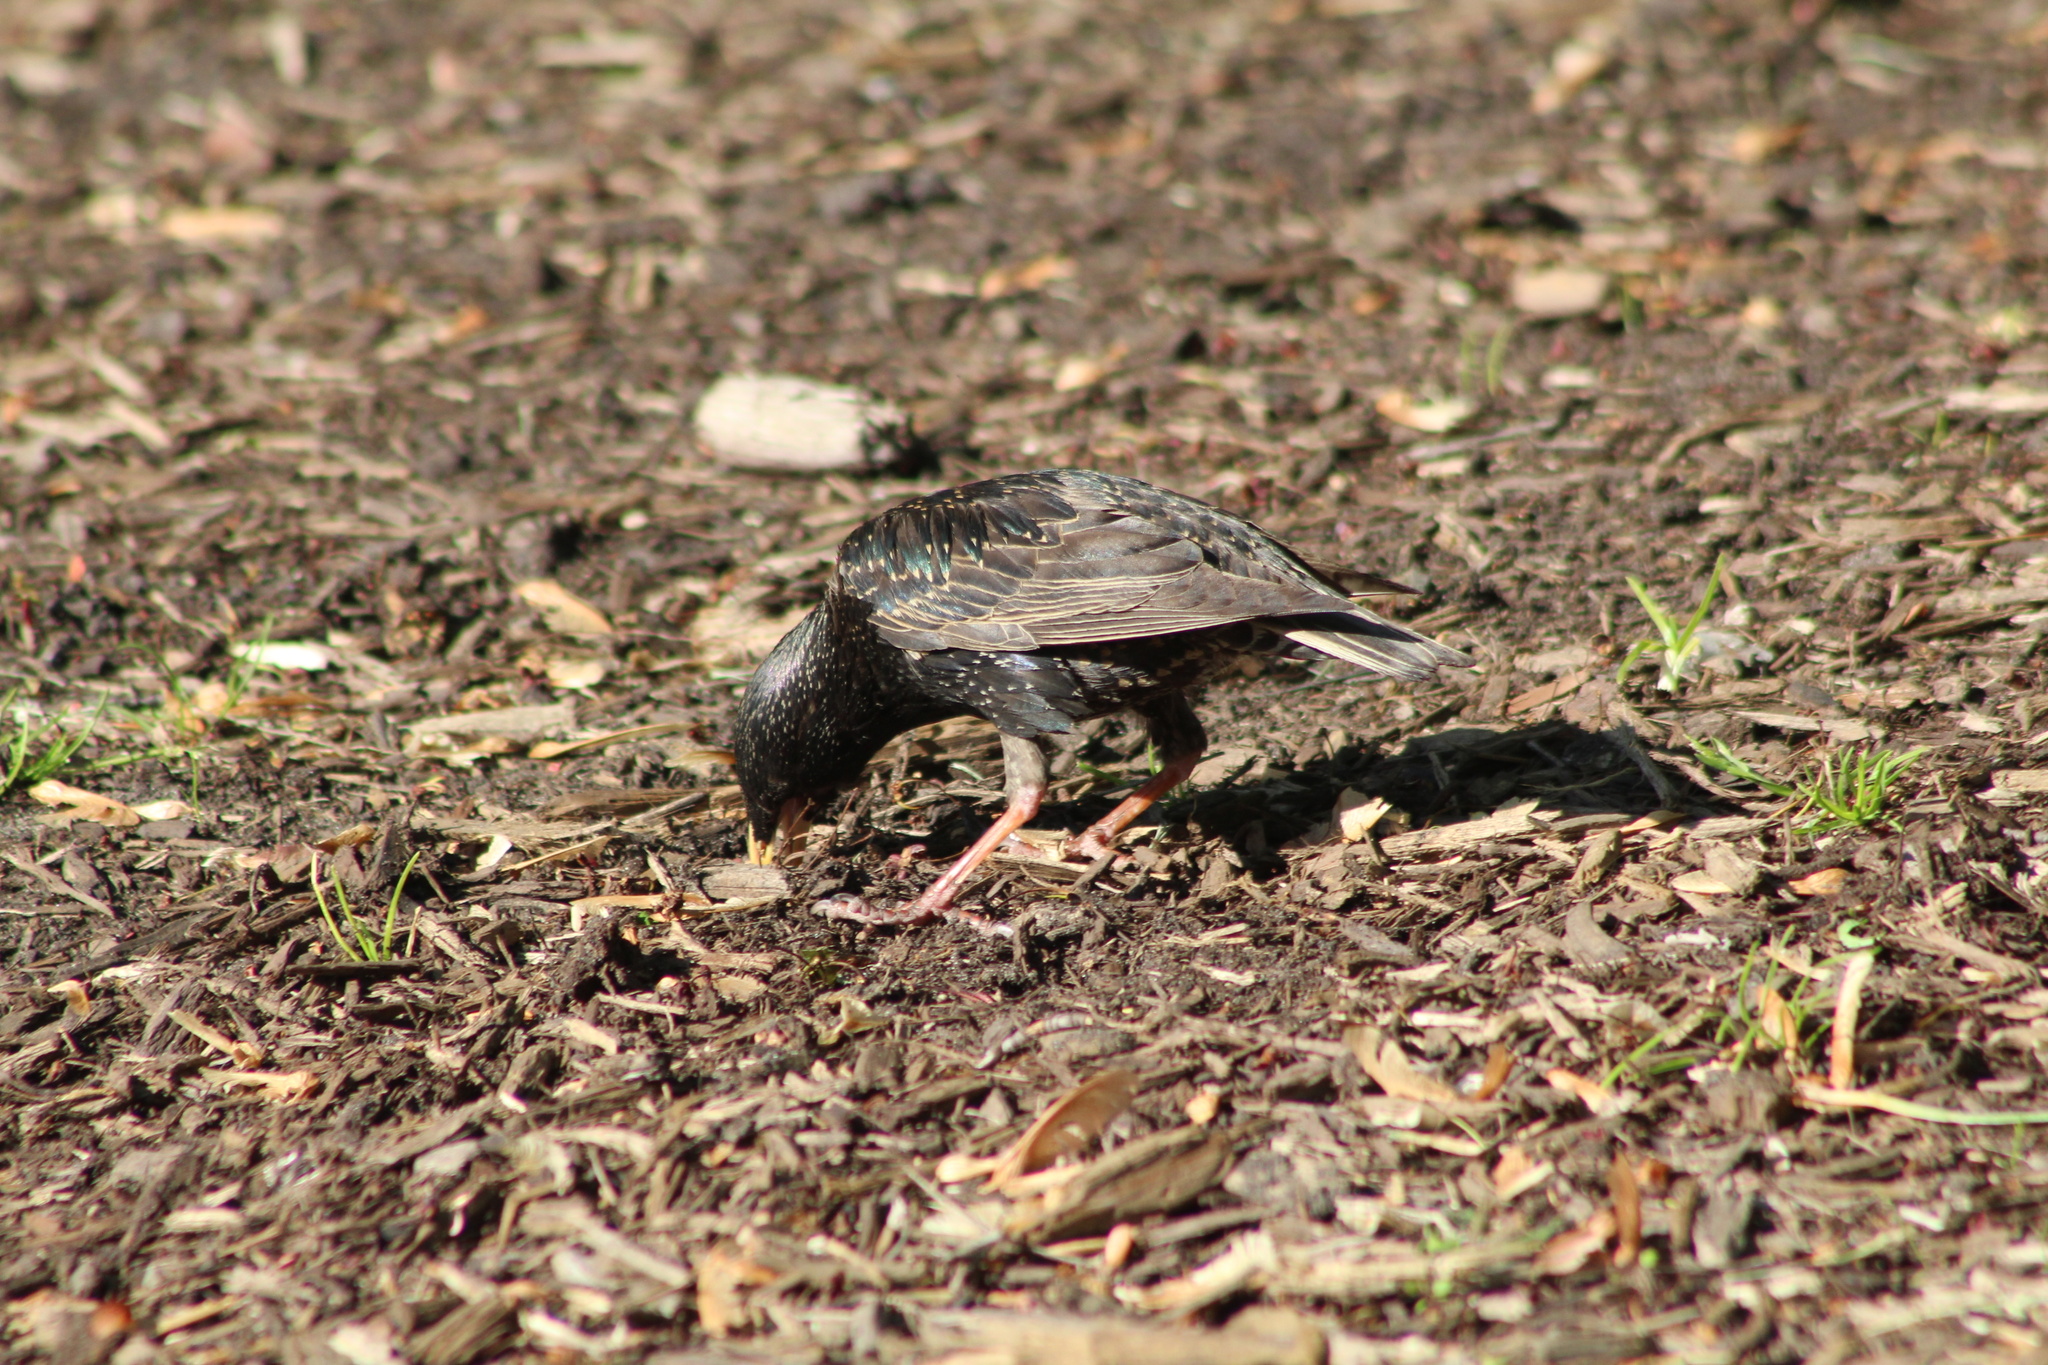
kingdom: Animalia
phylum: Chordata
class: Aves
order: Passeriformes
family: Sturnidae
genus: Sturnus
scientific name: Sturnus vulgaris
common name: Common starling
